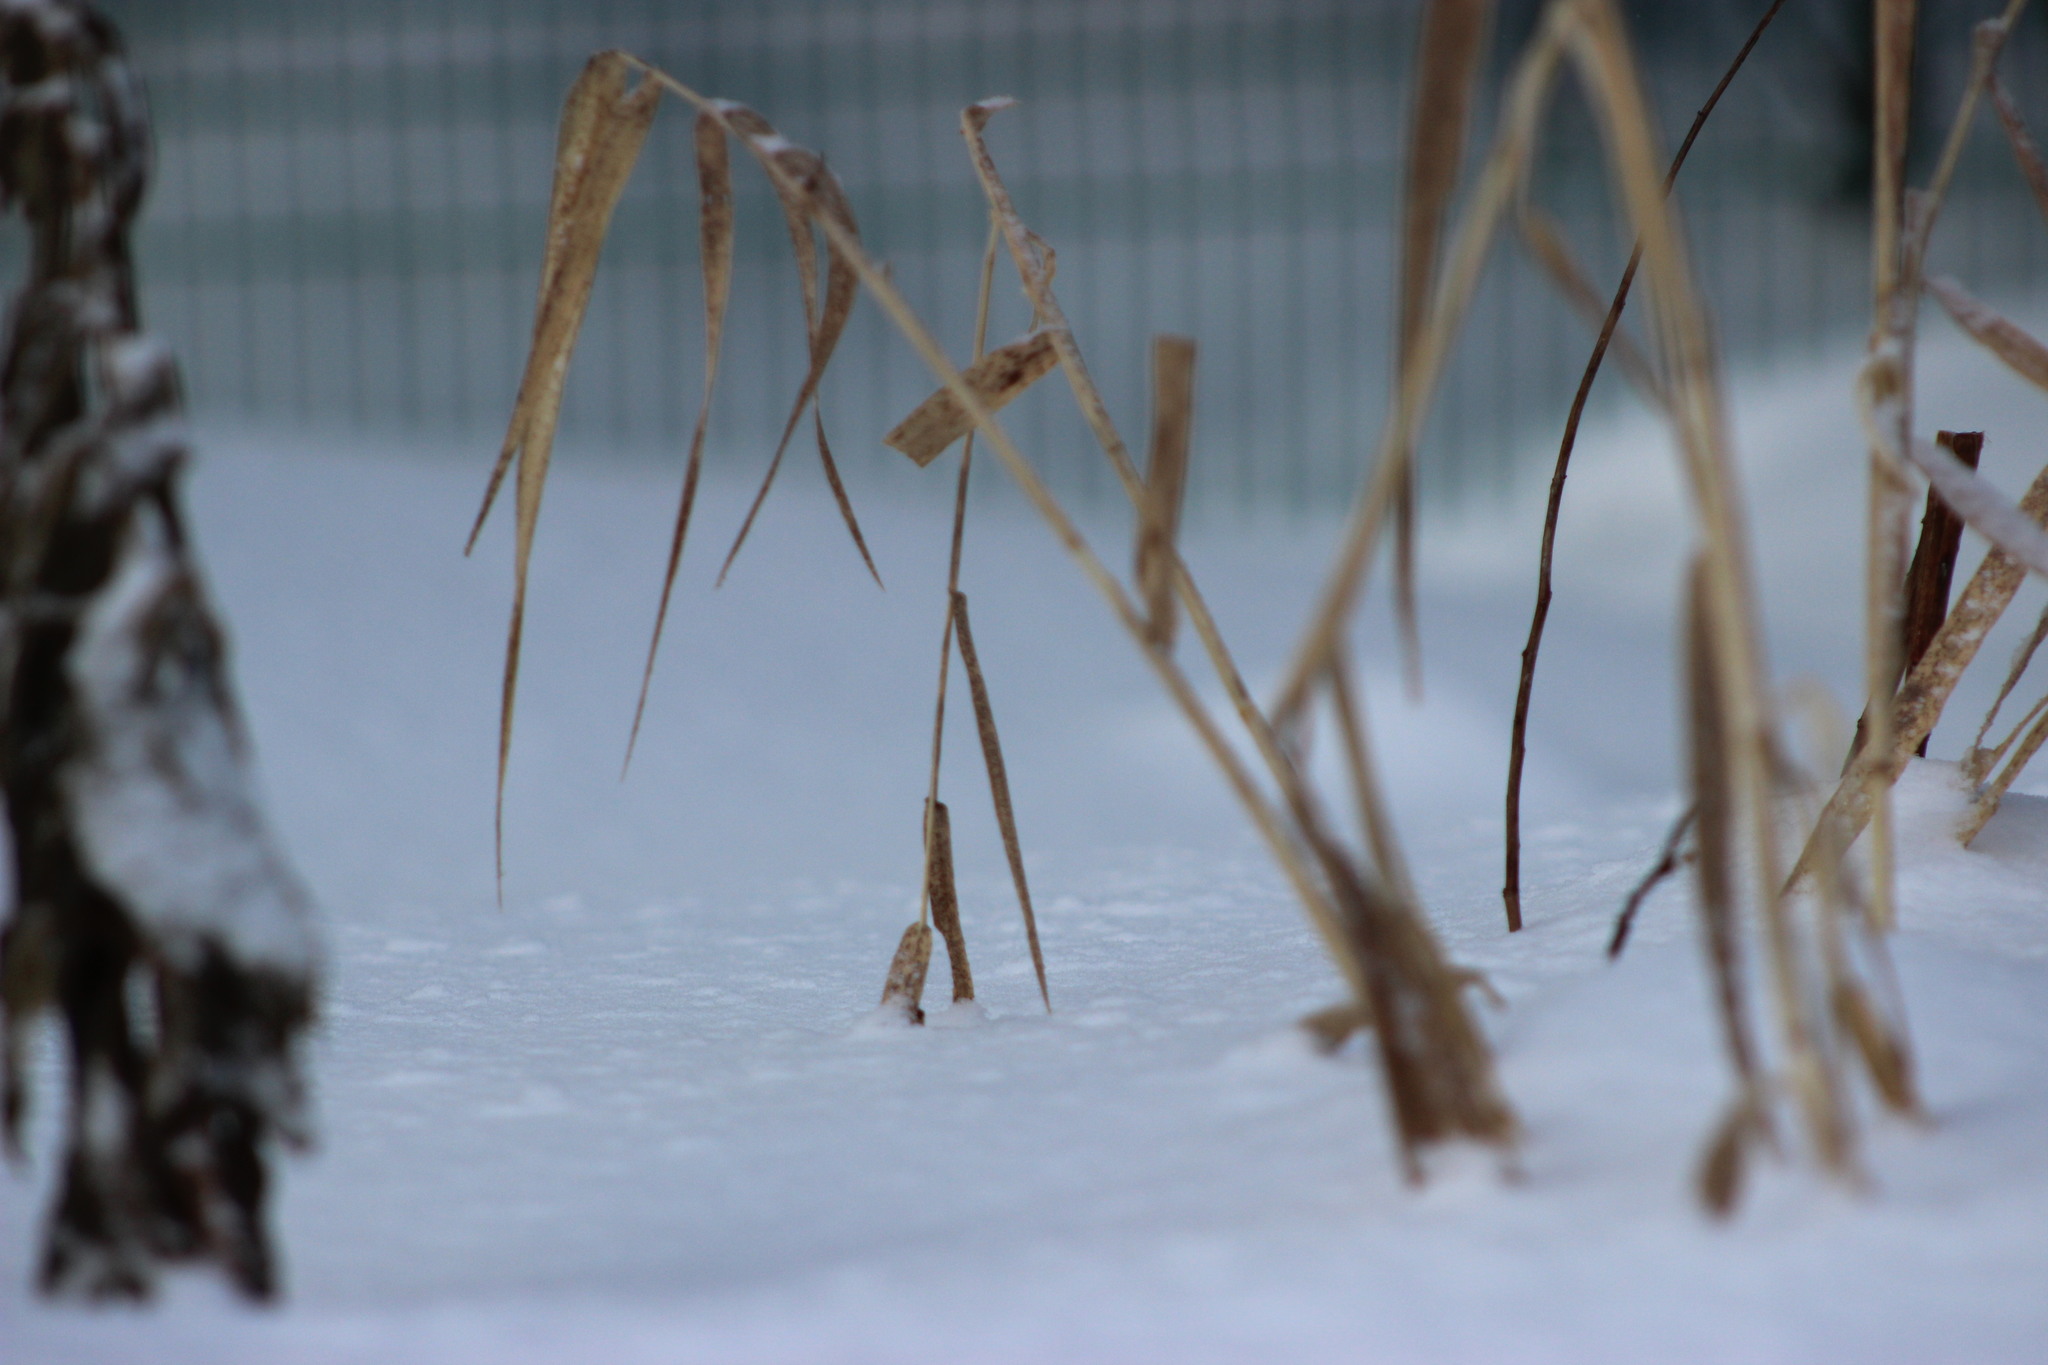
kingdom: Plantae
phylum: Tracheophyta
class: Liliopsida
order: Poales
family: Poaceae
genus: Phragmites
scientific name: Phragmites australis
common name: Common reed
